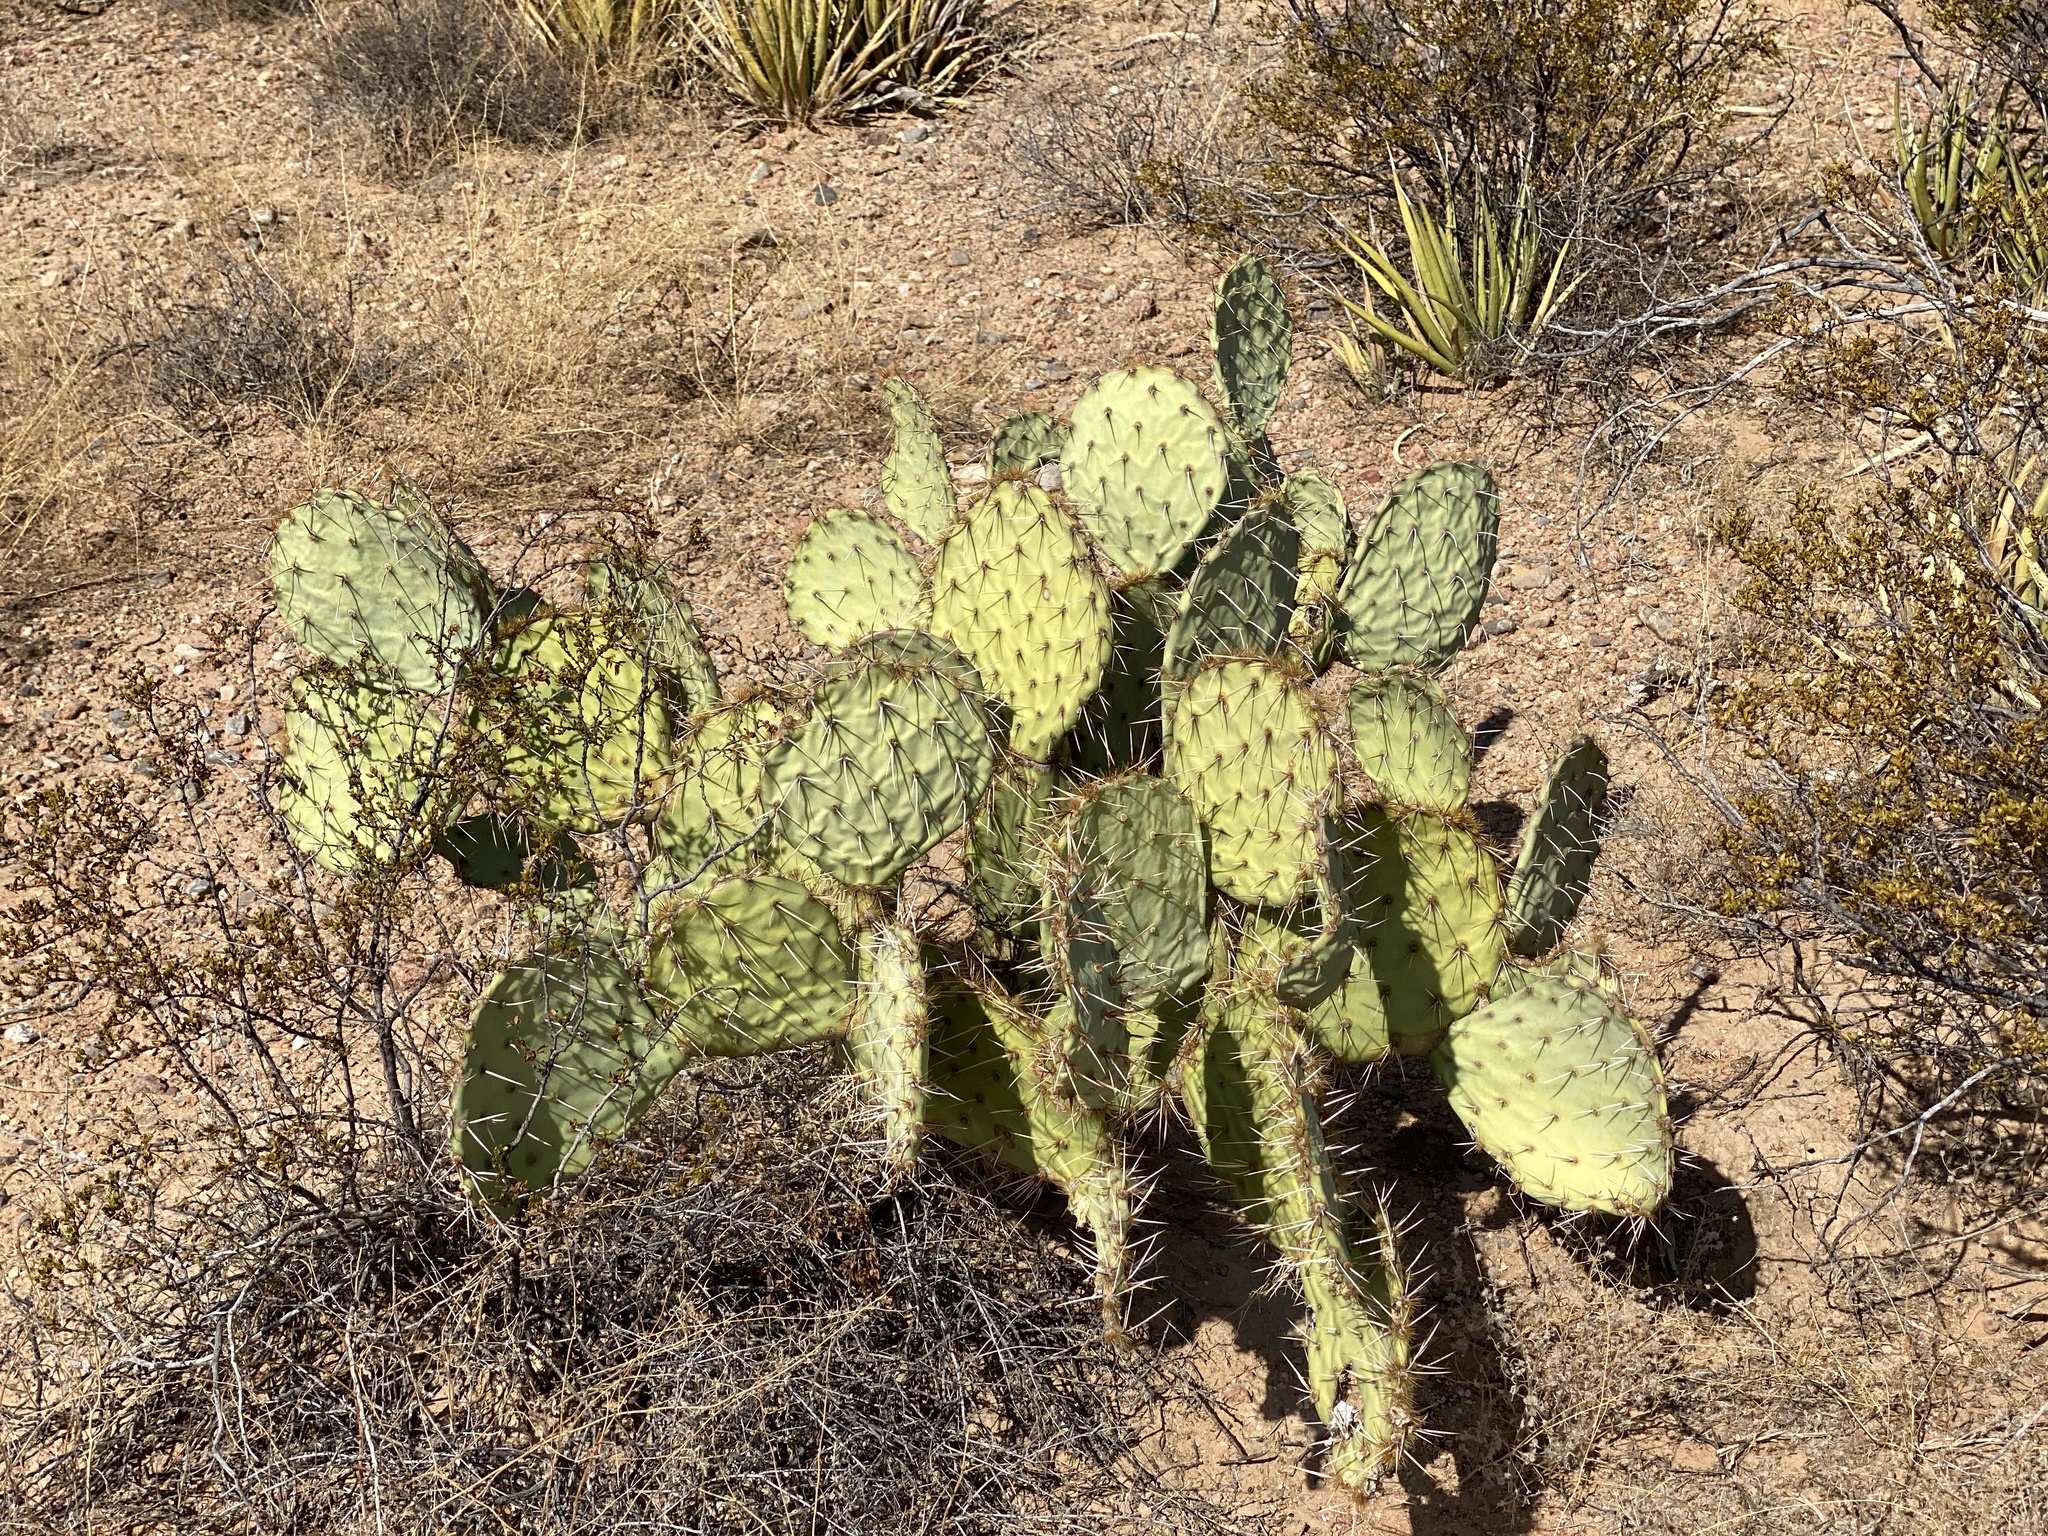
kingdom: Plantae
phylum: Tracheophyta
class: Magnoliopsida
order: Caryophyllales
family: Cactaceae
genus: Opuntia
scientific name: Opuntia engelmannii
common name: Cactus-apple
